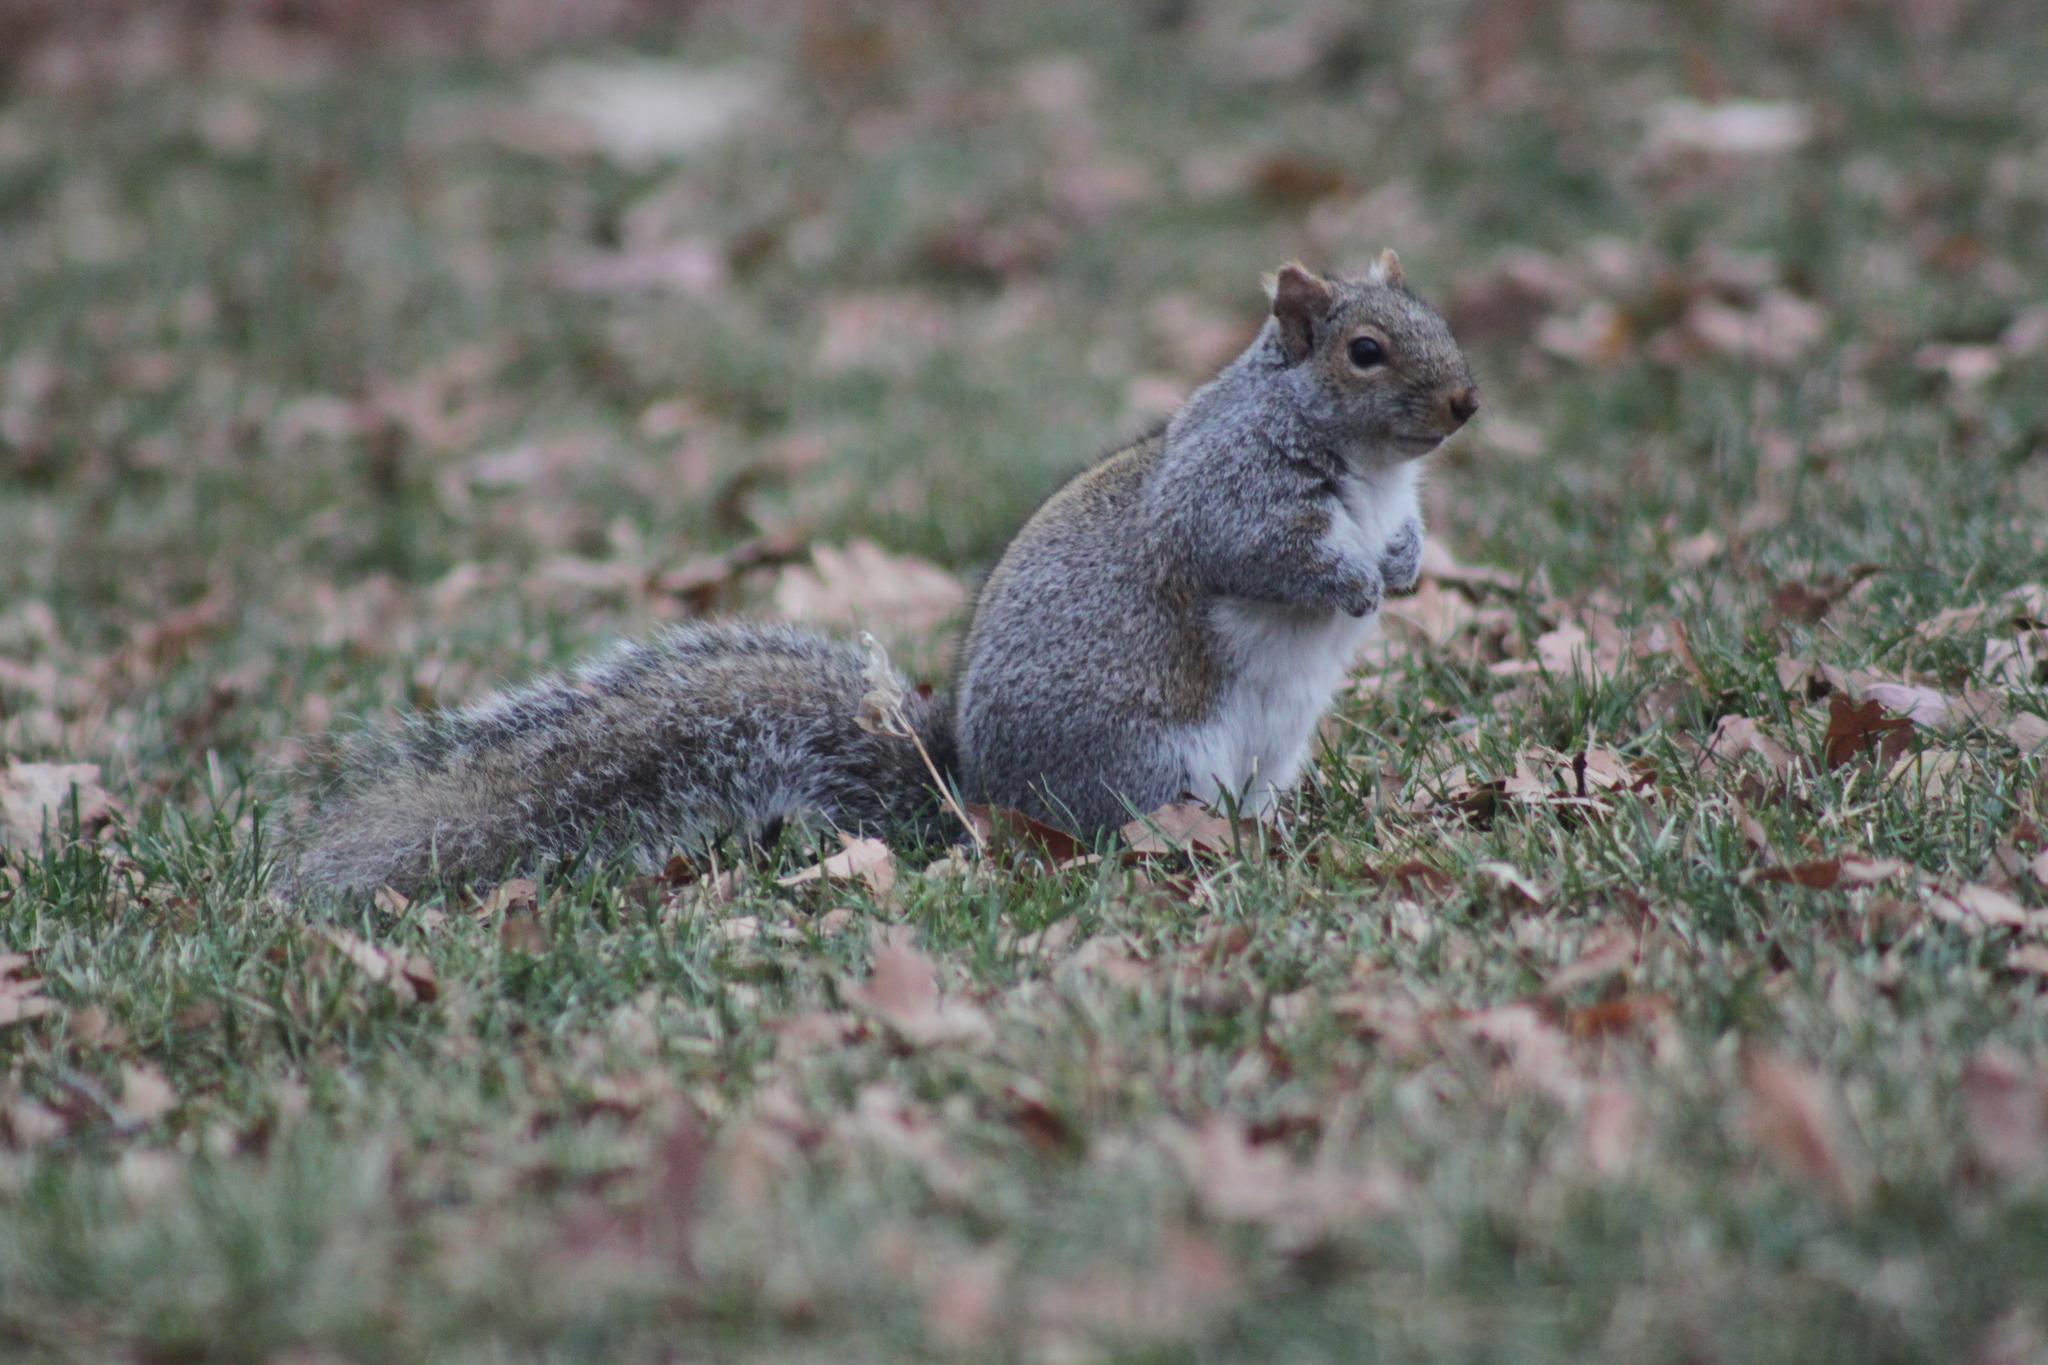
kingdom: Animalia
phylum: Chordata
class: Mammalia
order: Rodentia
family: Sciuridae
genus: Sciurus
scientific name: Sciurus carolinensis
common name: Eastern gray squirrel
